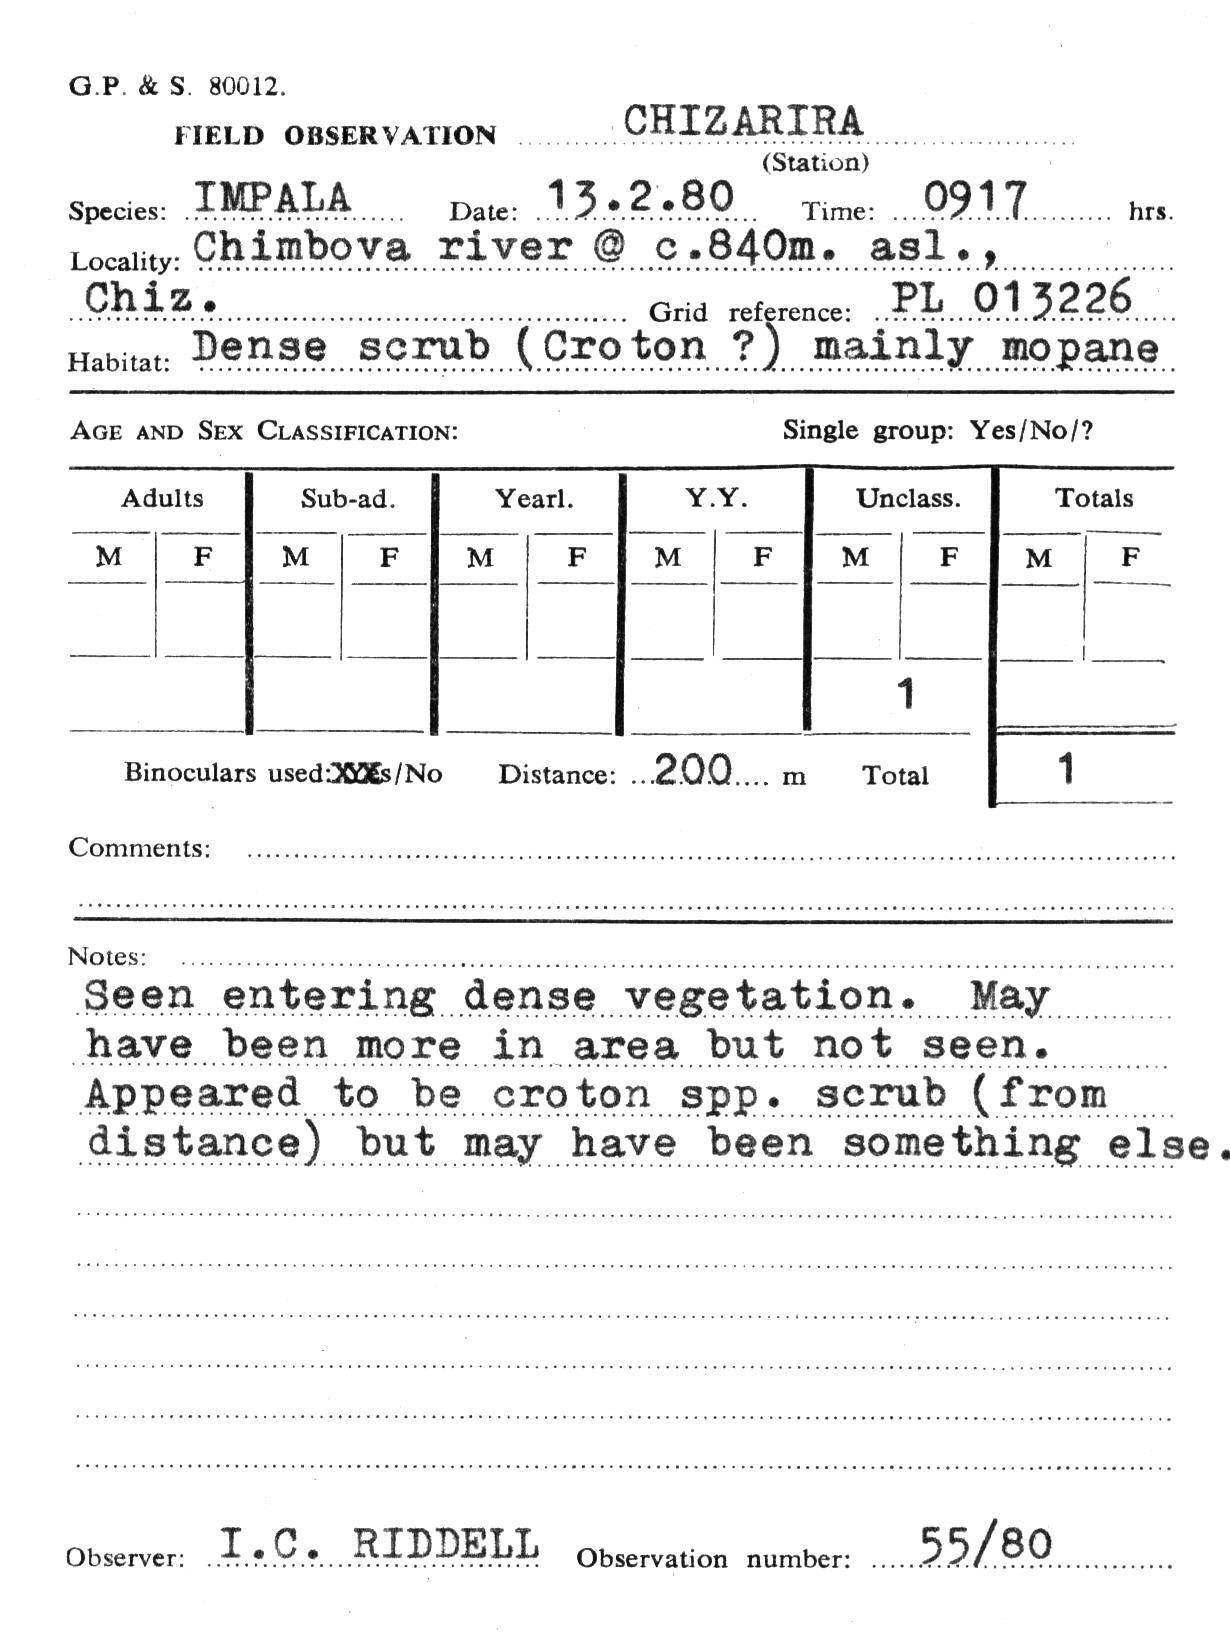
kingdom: Animalia
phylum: Chordata
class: Mammalia
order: Artiodactyla
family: Bovidae
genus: Aepyceros
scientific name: Aepyceros melampus
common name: Impala
